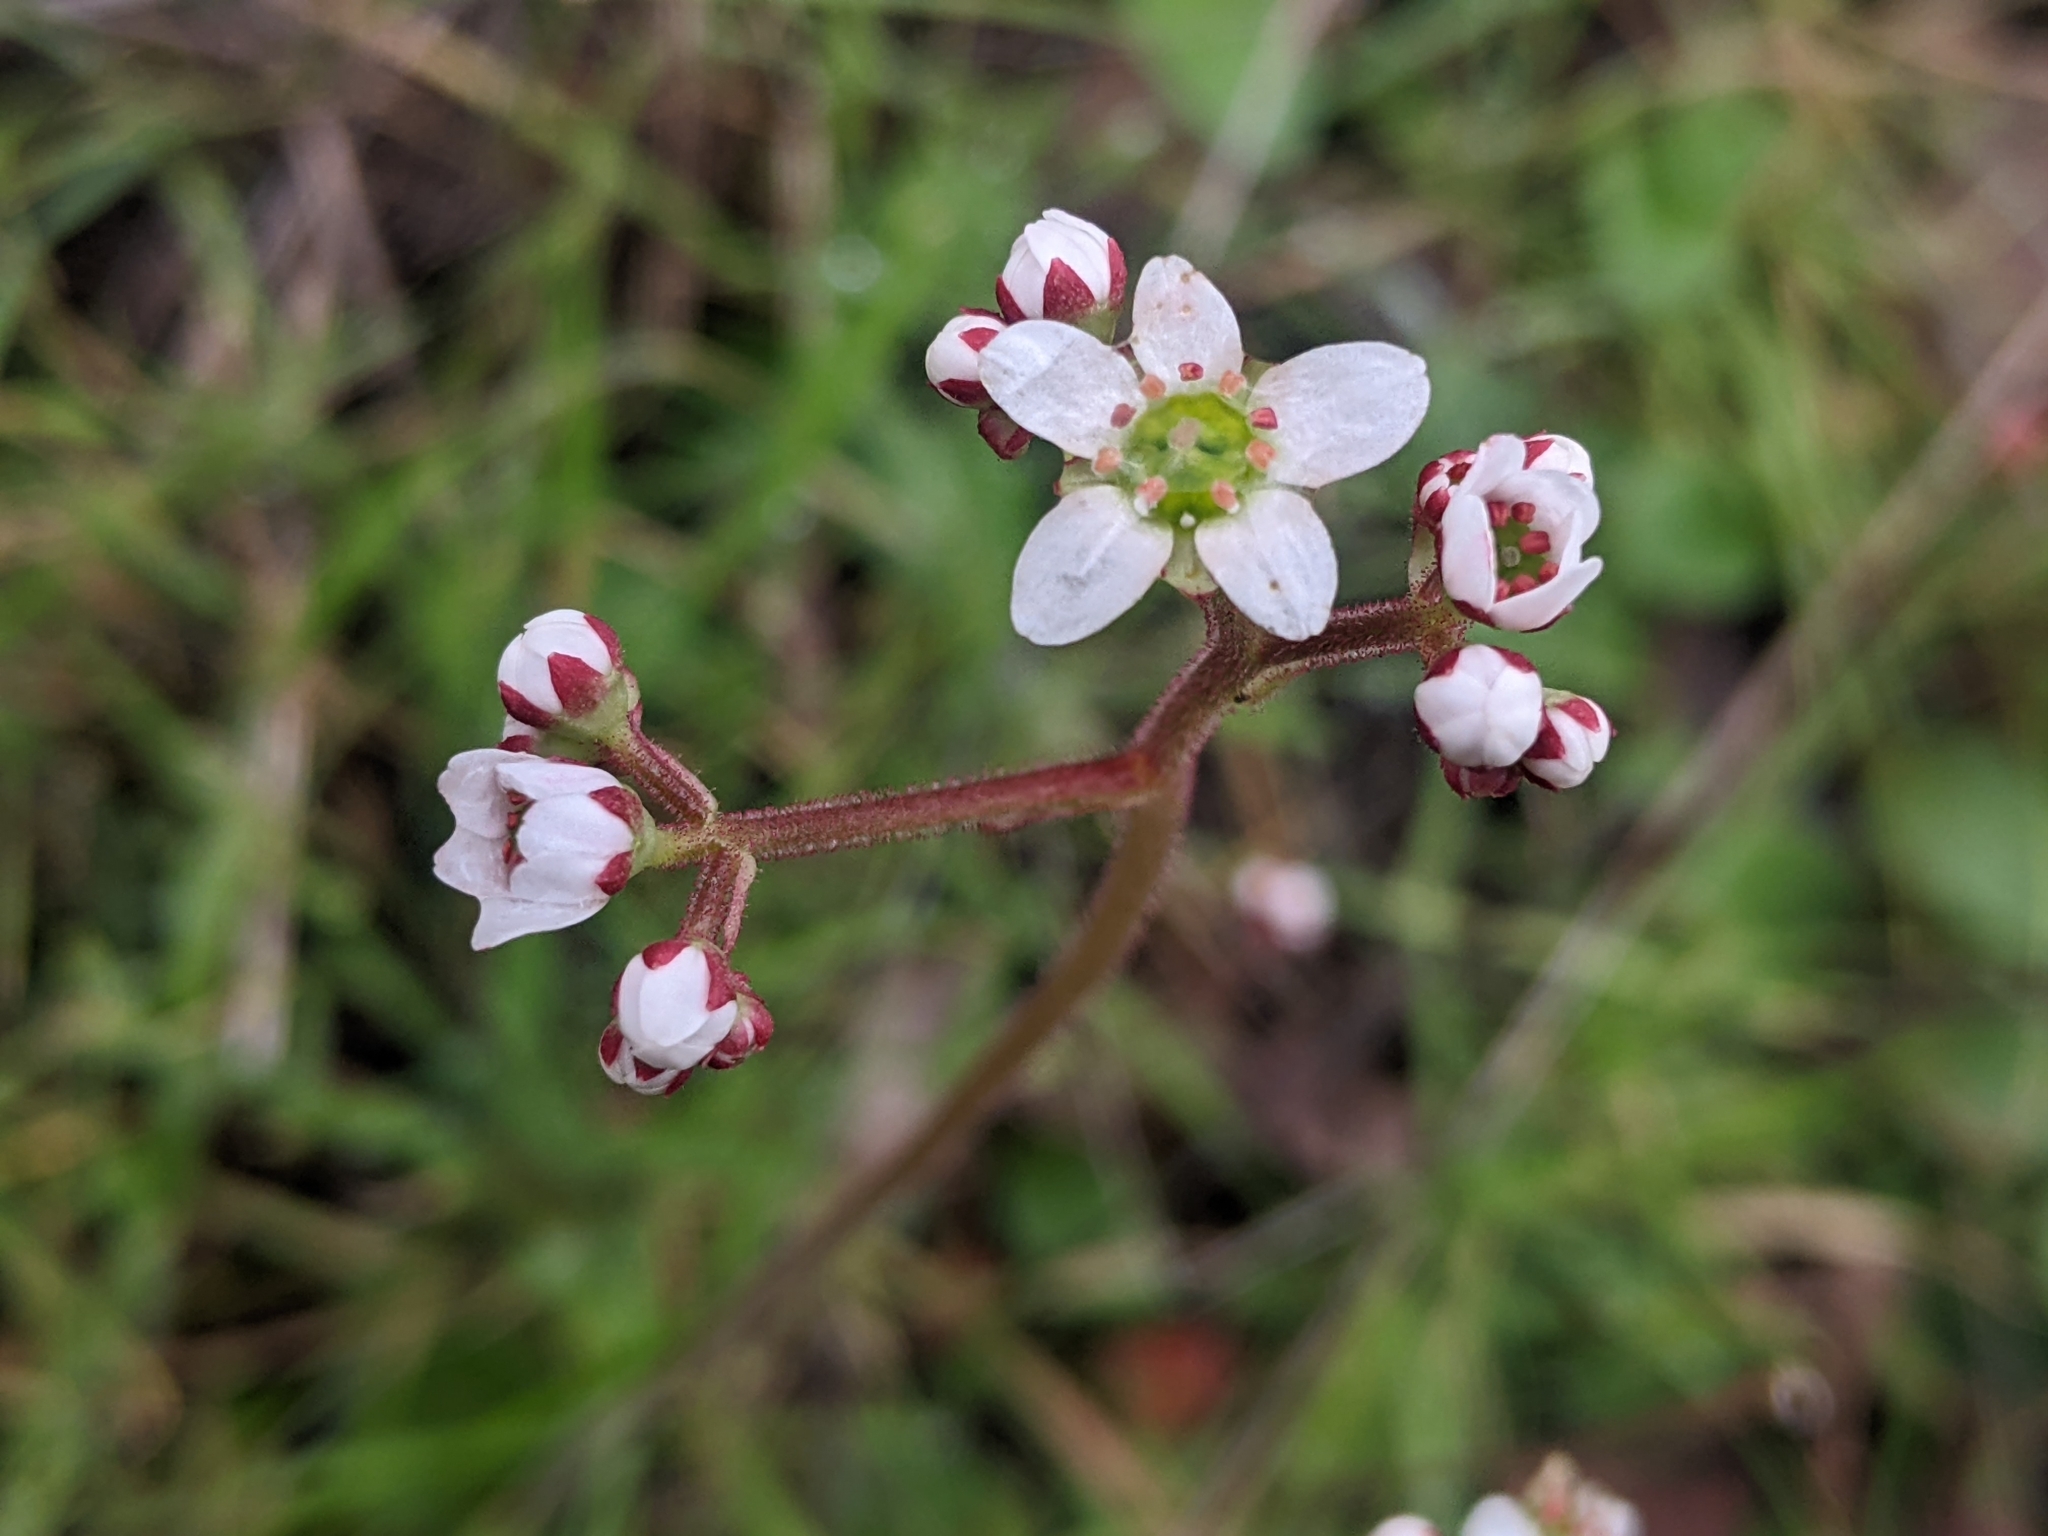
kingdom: Plantae
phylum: Tracheophyta
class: Magnoliopsida
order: Saxifragales
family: Saxifragaceae
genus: Micranthes
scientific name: Micranthes californica
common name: California saxifrage
